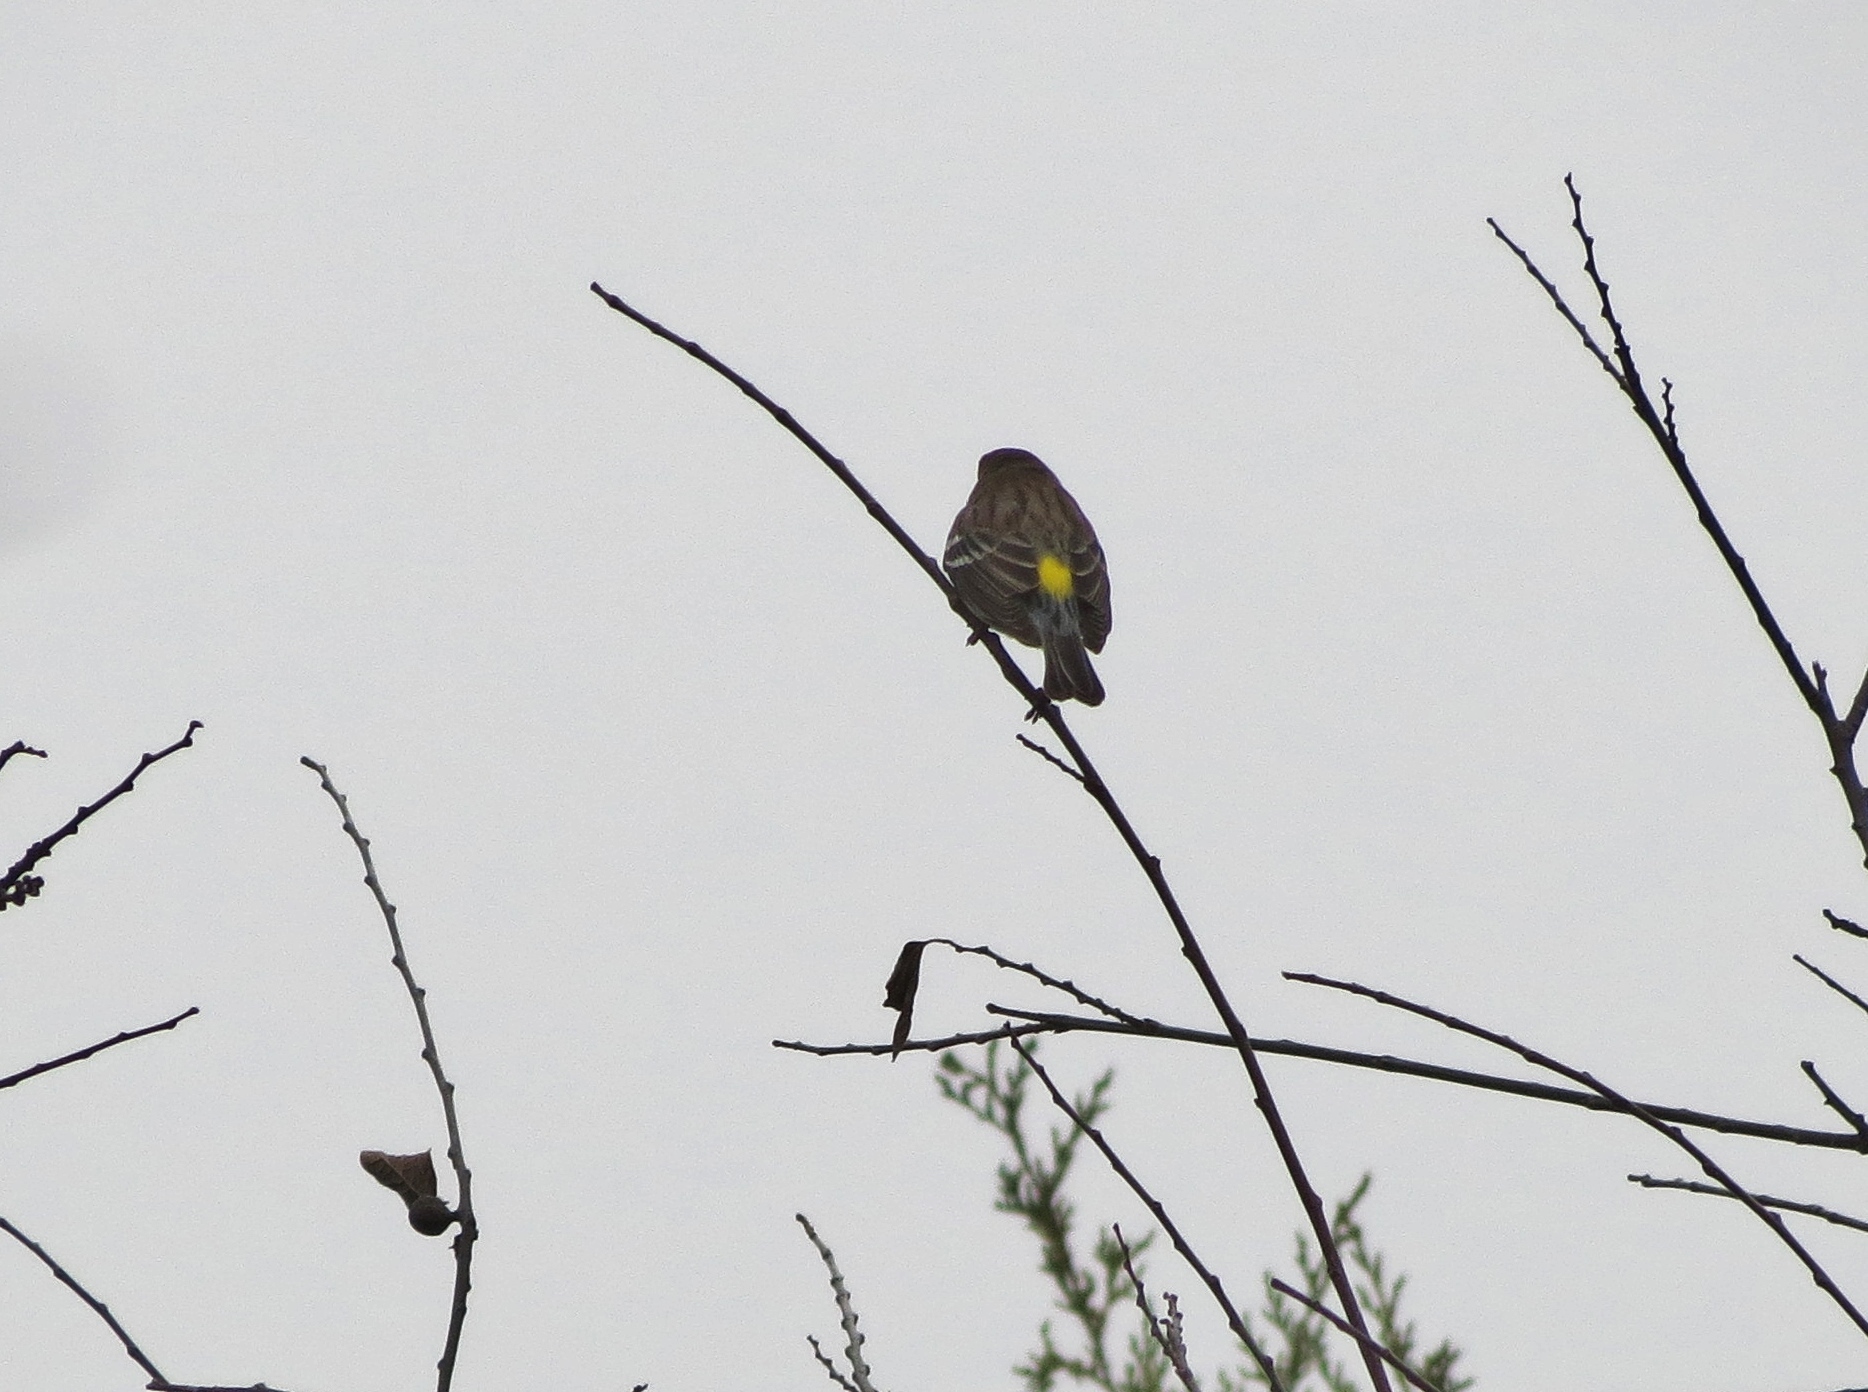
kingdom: Animalia
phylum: Chordata
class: Aves
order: Passeriformes
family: Parulidae
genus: Setophaga
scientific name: Setophaga coronata
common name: Myrtle warbler
